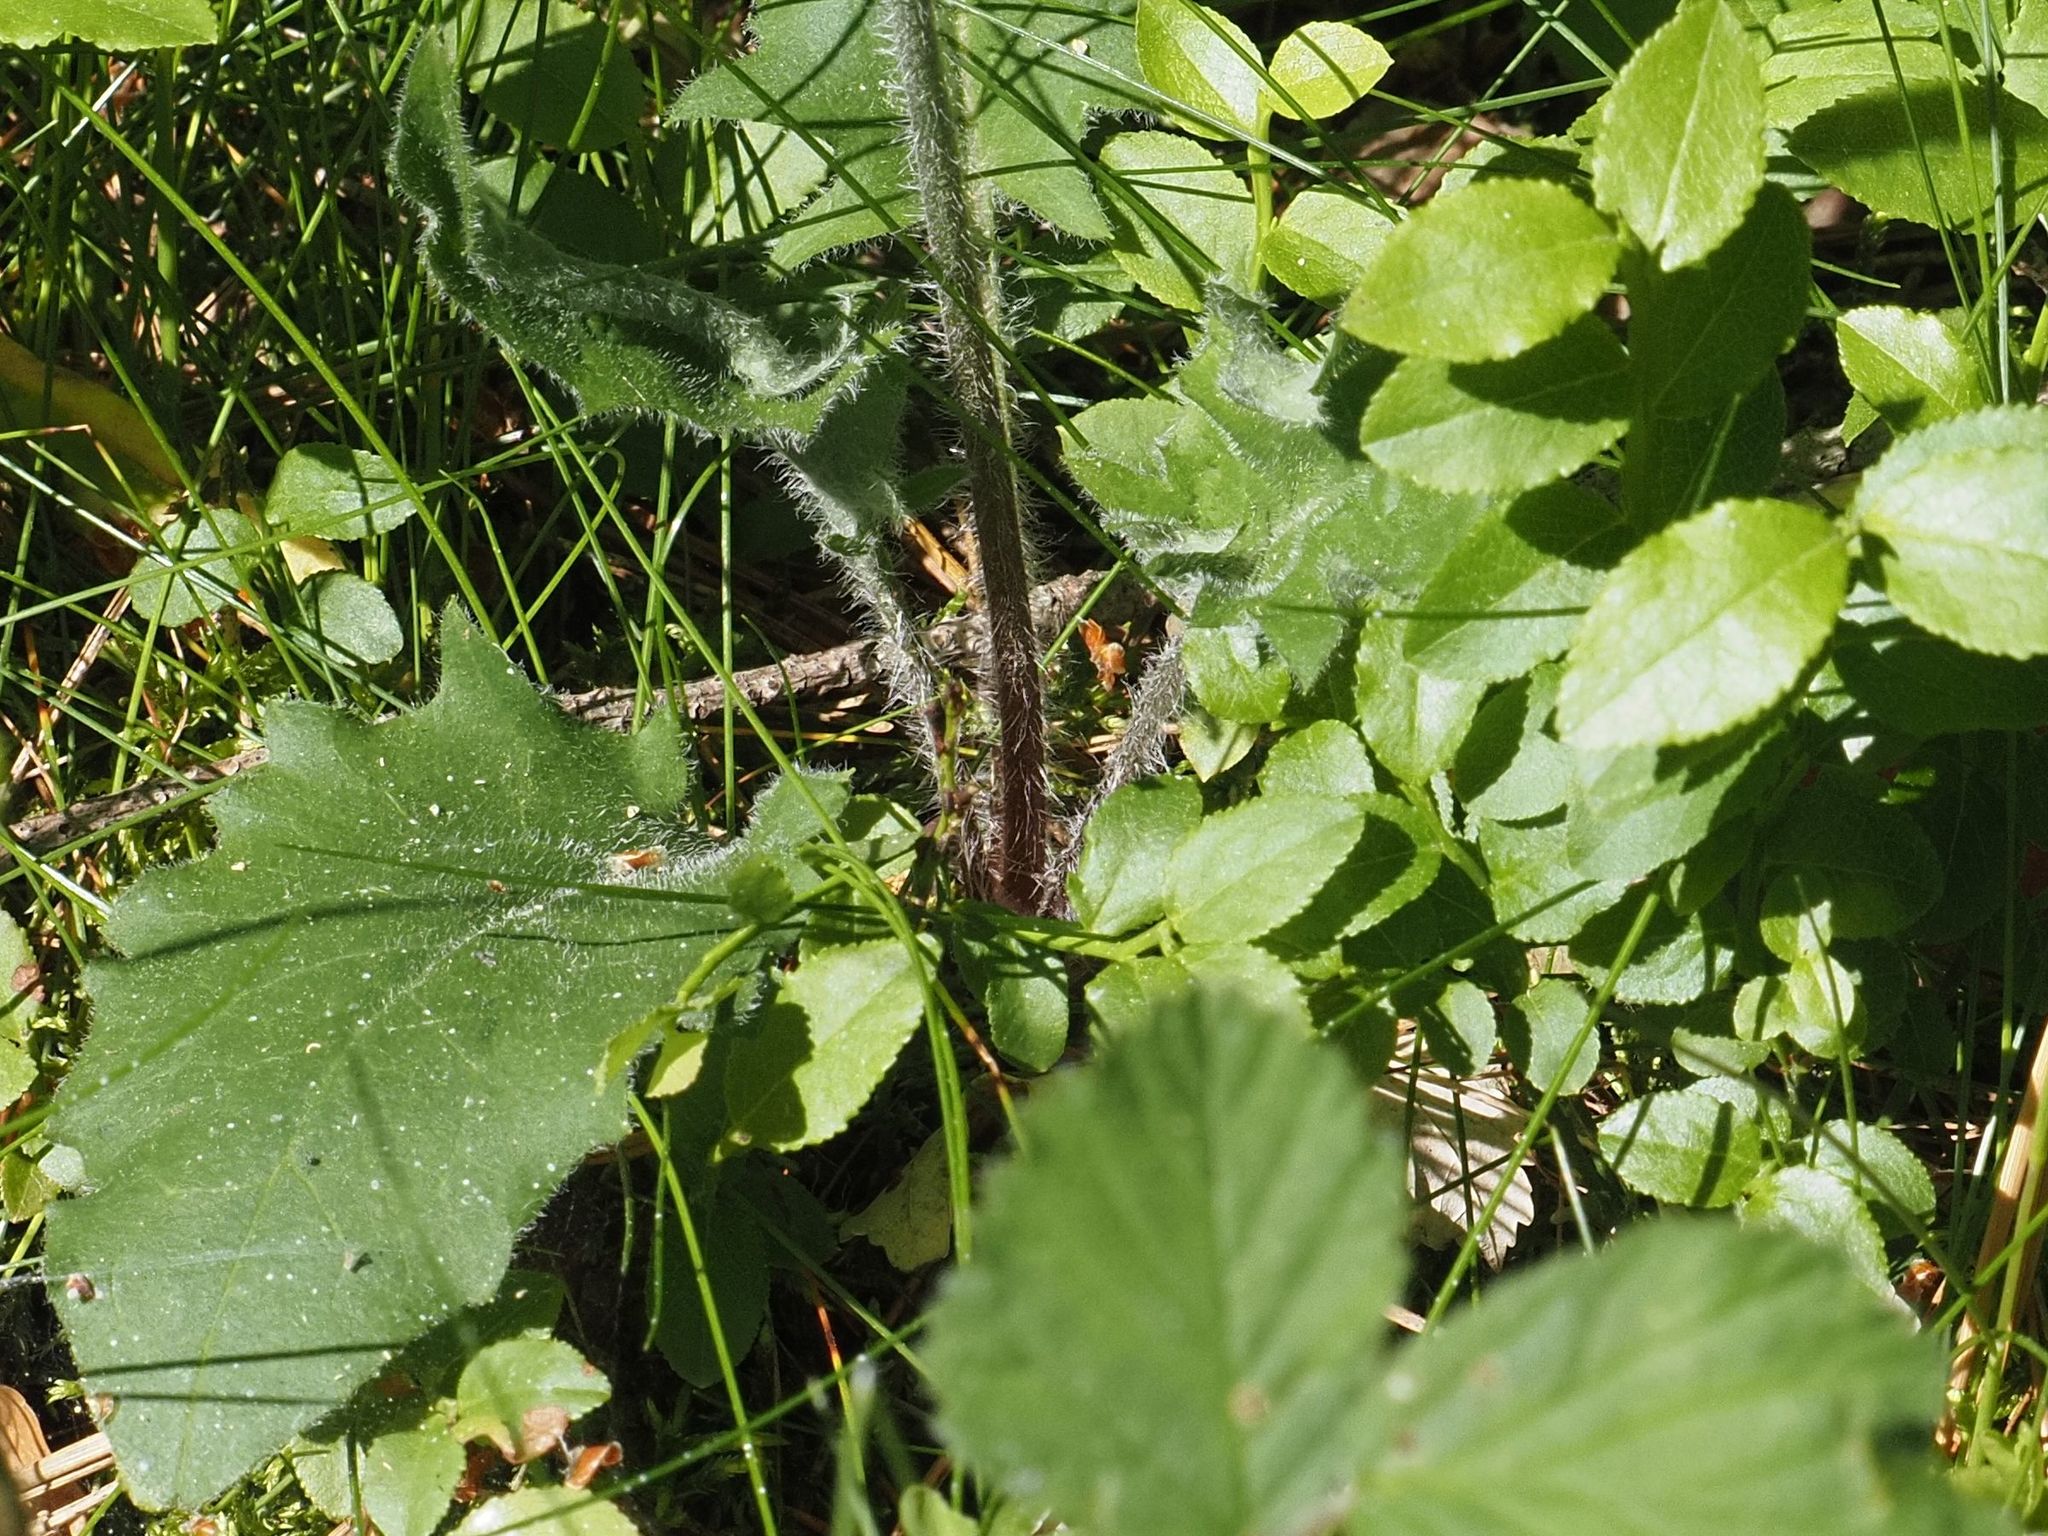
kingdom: Plantae
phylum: Tracheophyta
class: Magnoliopsida
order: Asterales
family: Asteraceae
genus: Hieracium
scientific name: Hieracium murorum
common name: Wall hawkweed
